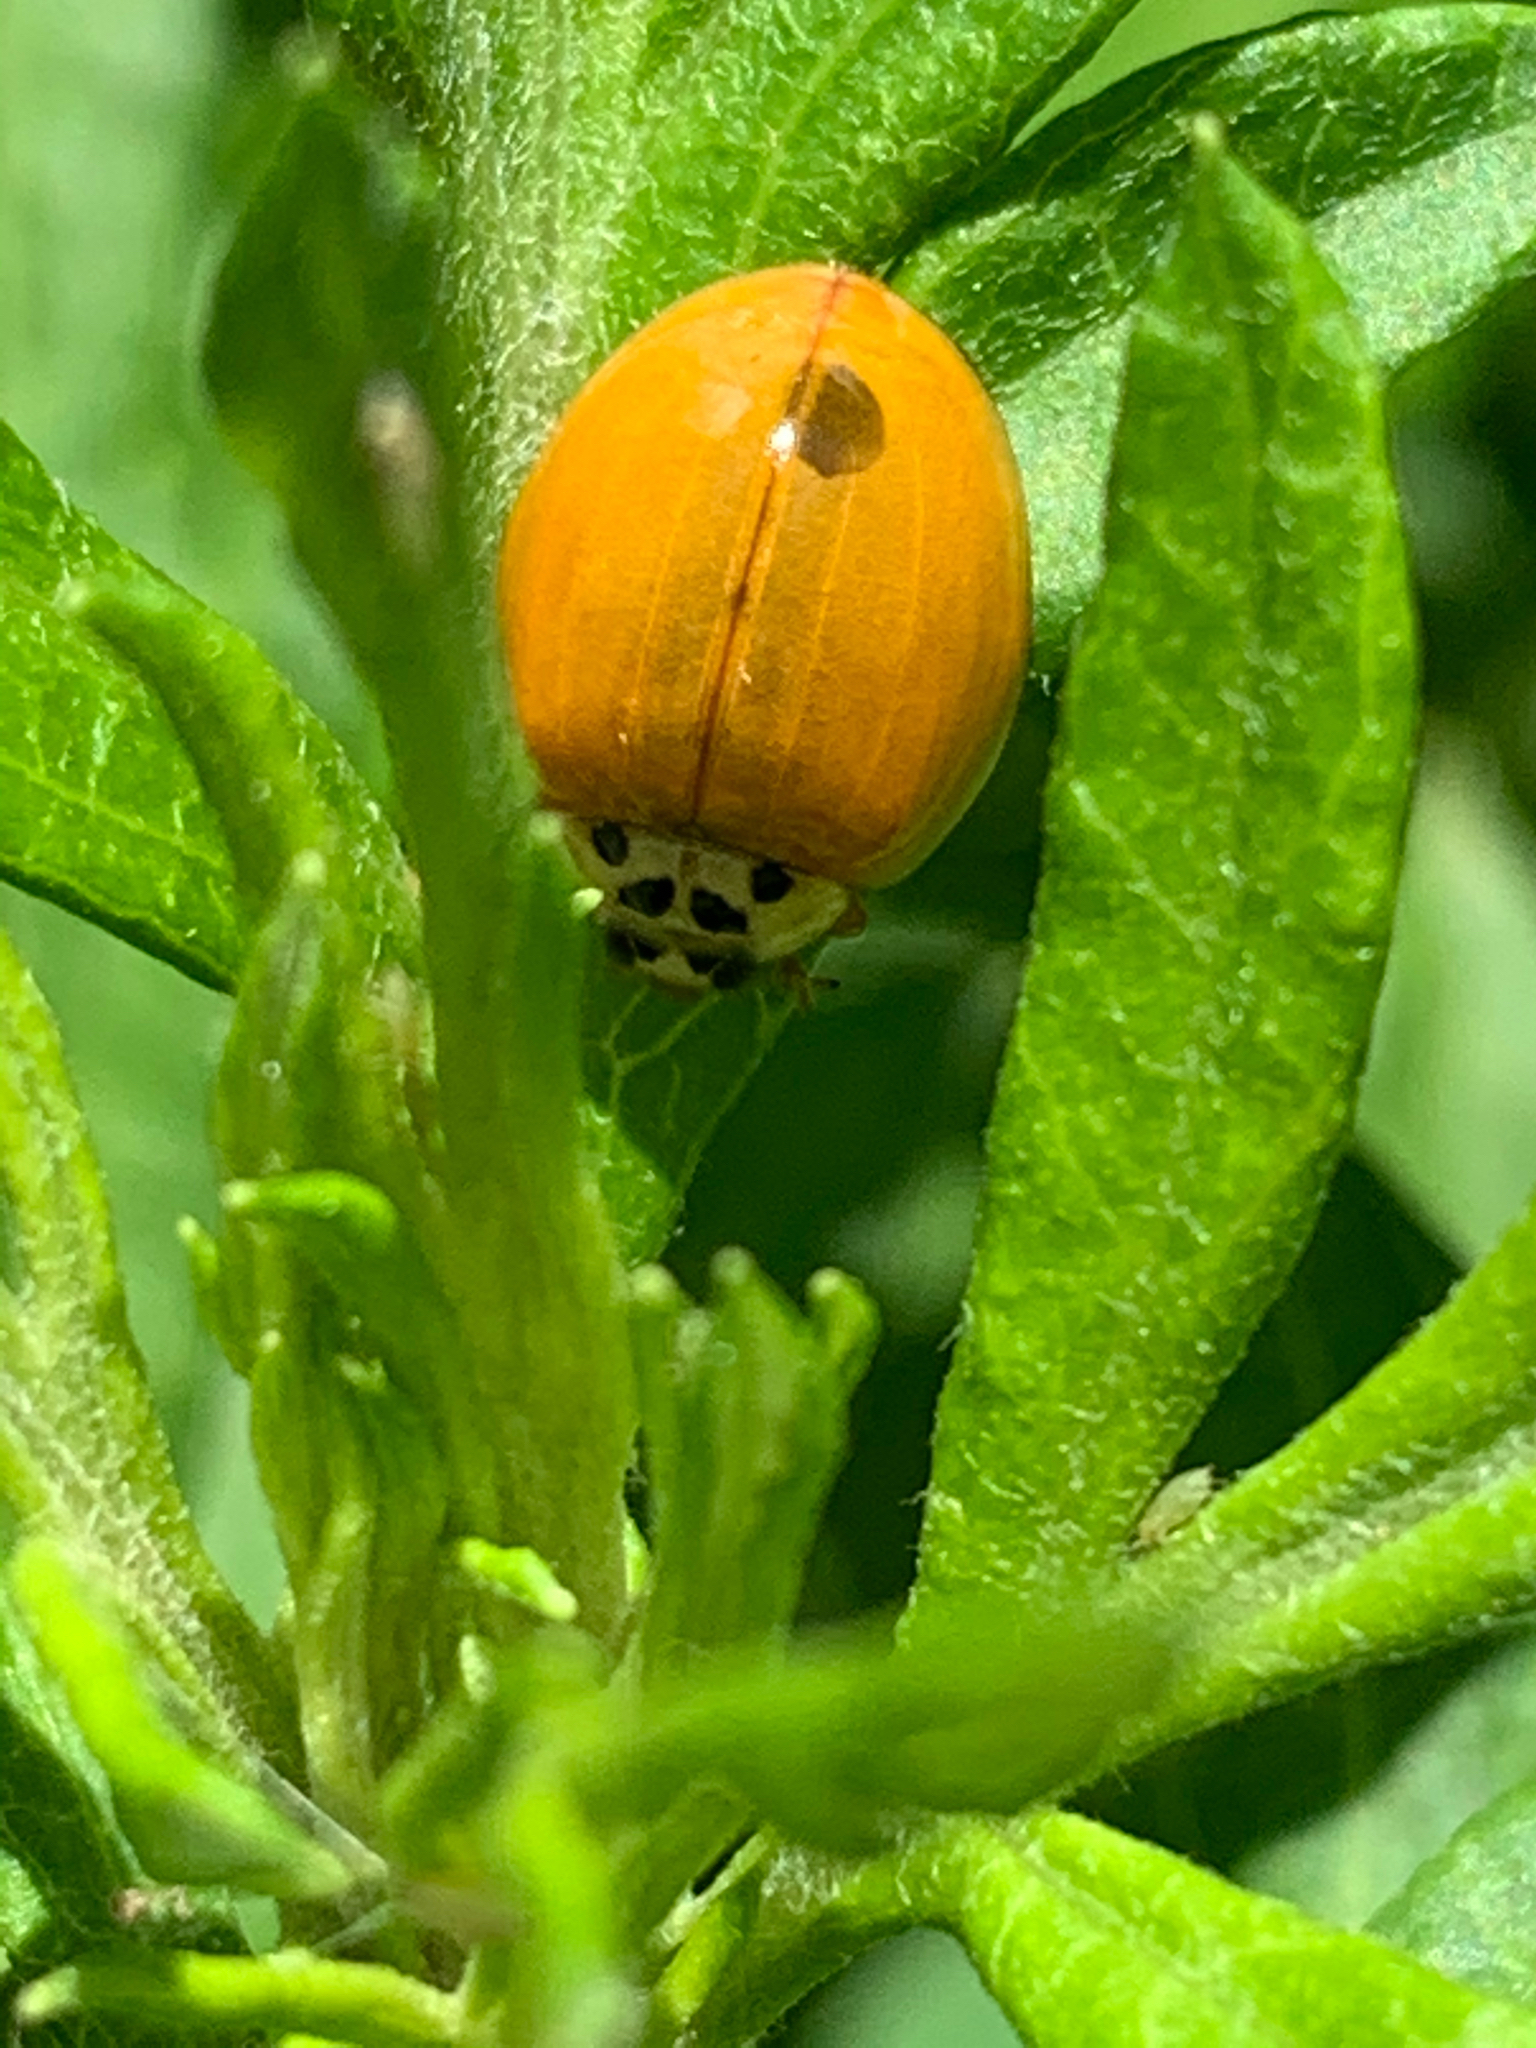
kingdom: Animalia
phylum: Arthropoda
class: Insecta
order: Coleoptera
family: Coccinellidae
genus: Harmonia
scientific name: Harmonia axyridis
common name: Harlequin ladybird
